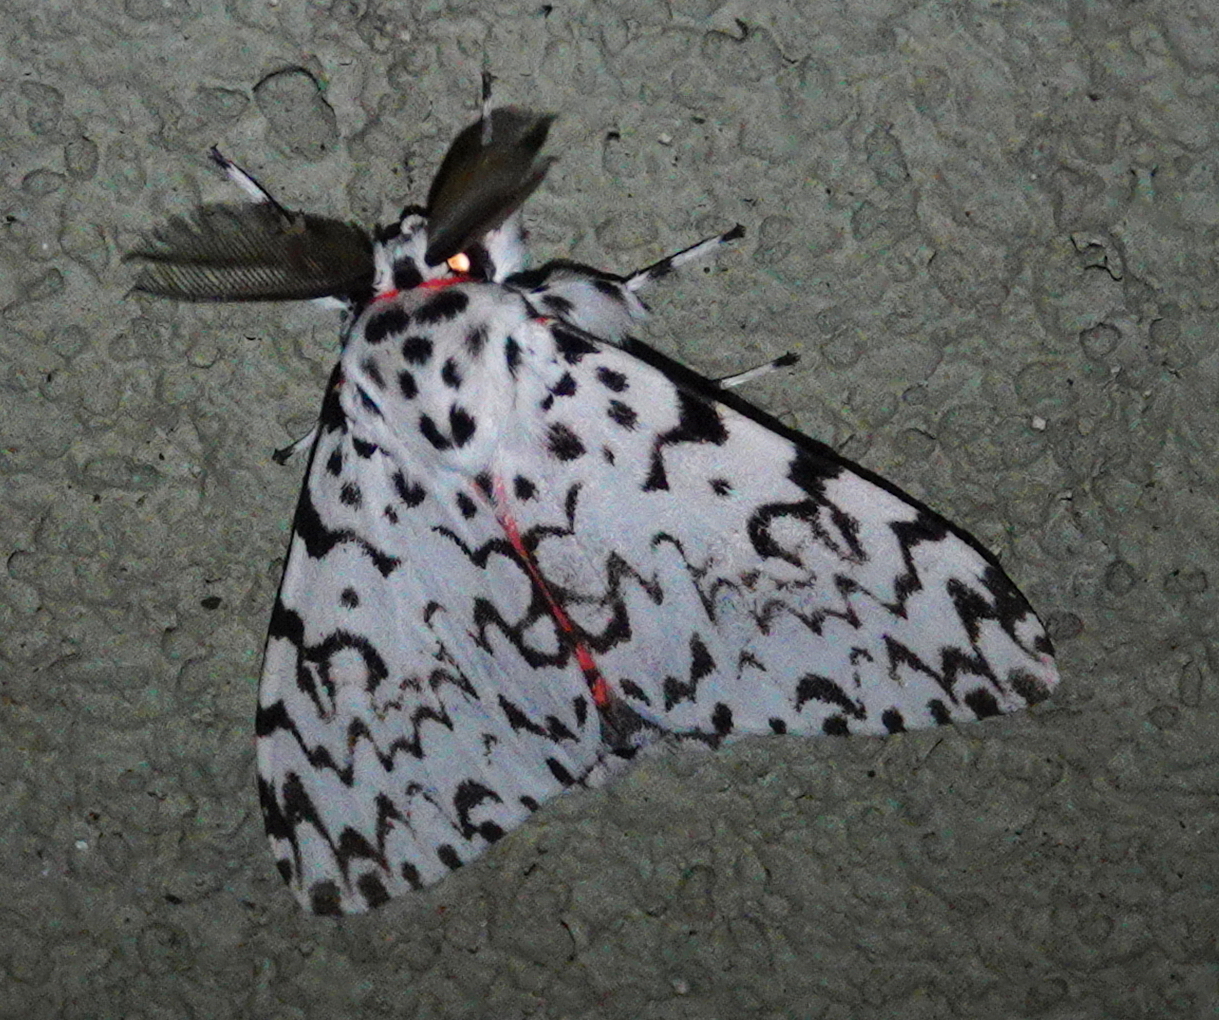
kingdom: Animalia
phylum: Arthropoda
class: Insecta
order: Lepidoptera
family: Erebidae
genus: Lymantria
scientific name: Lymantria todara
